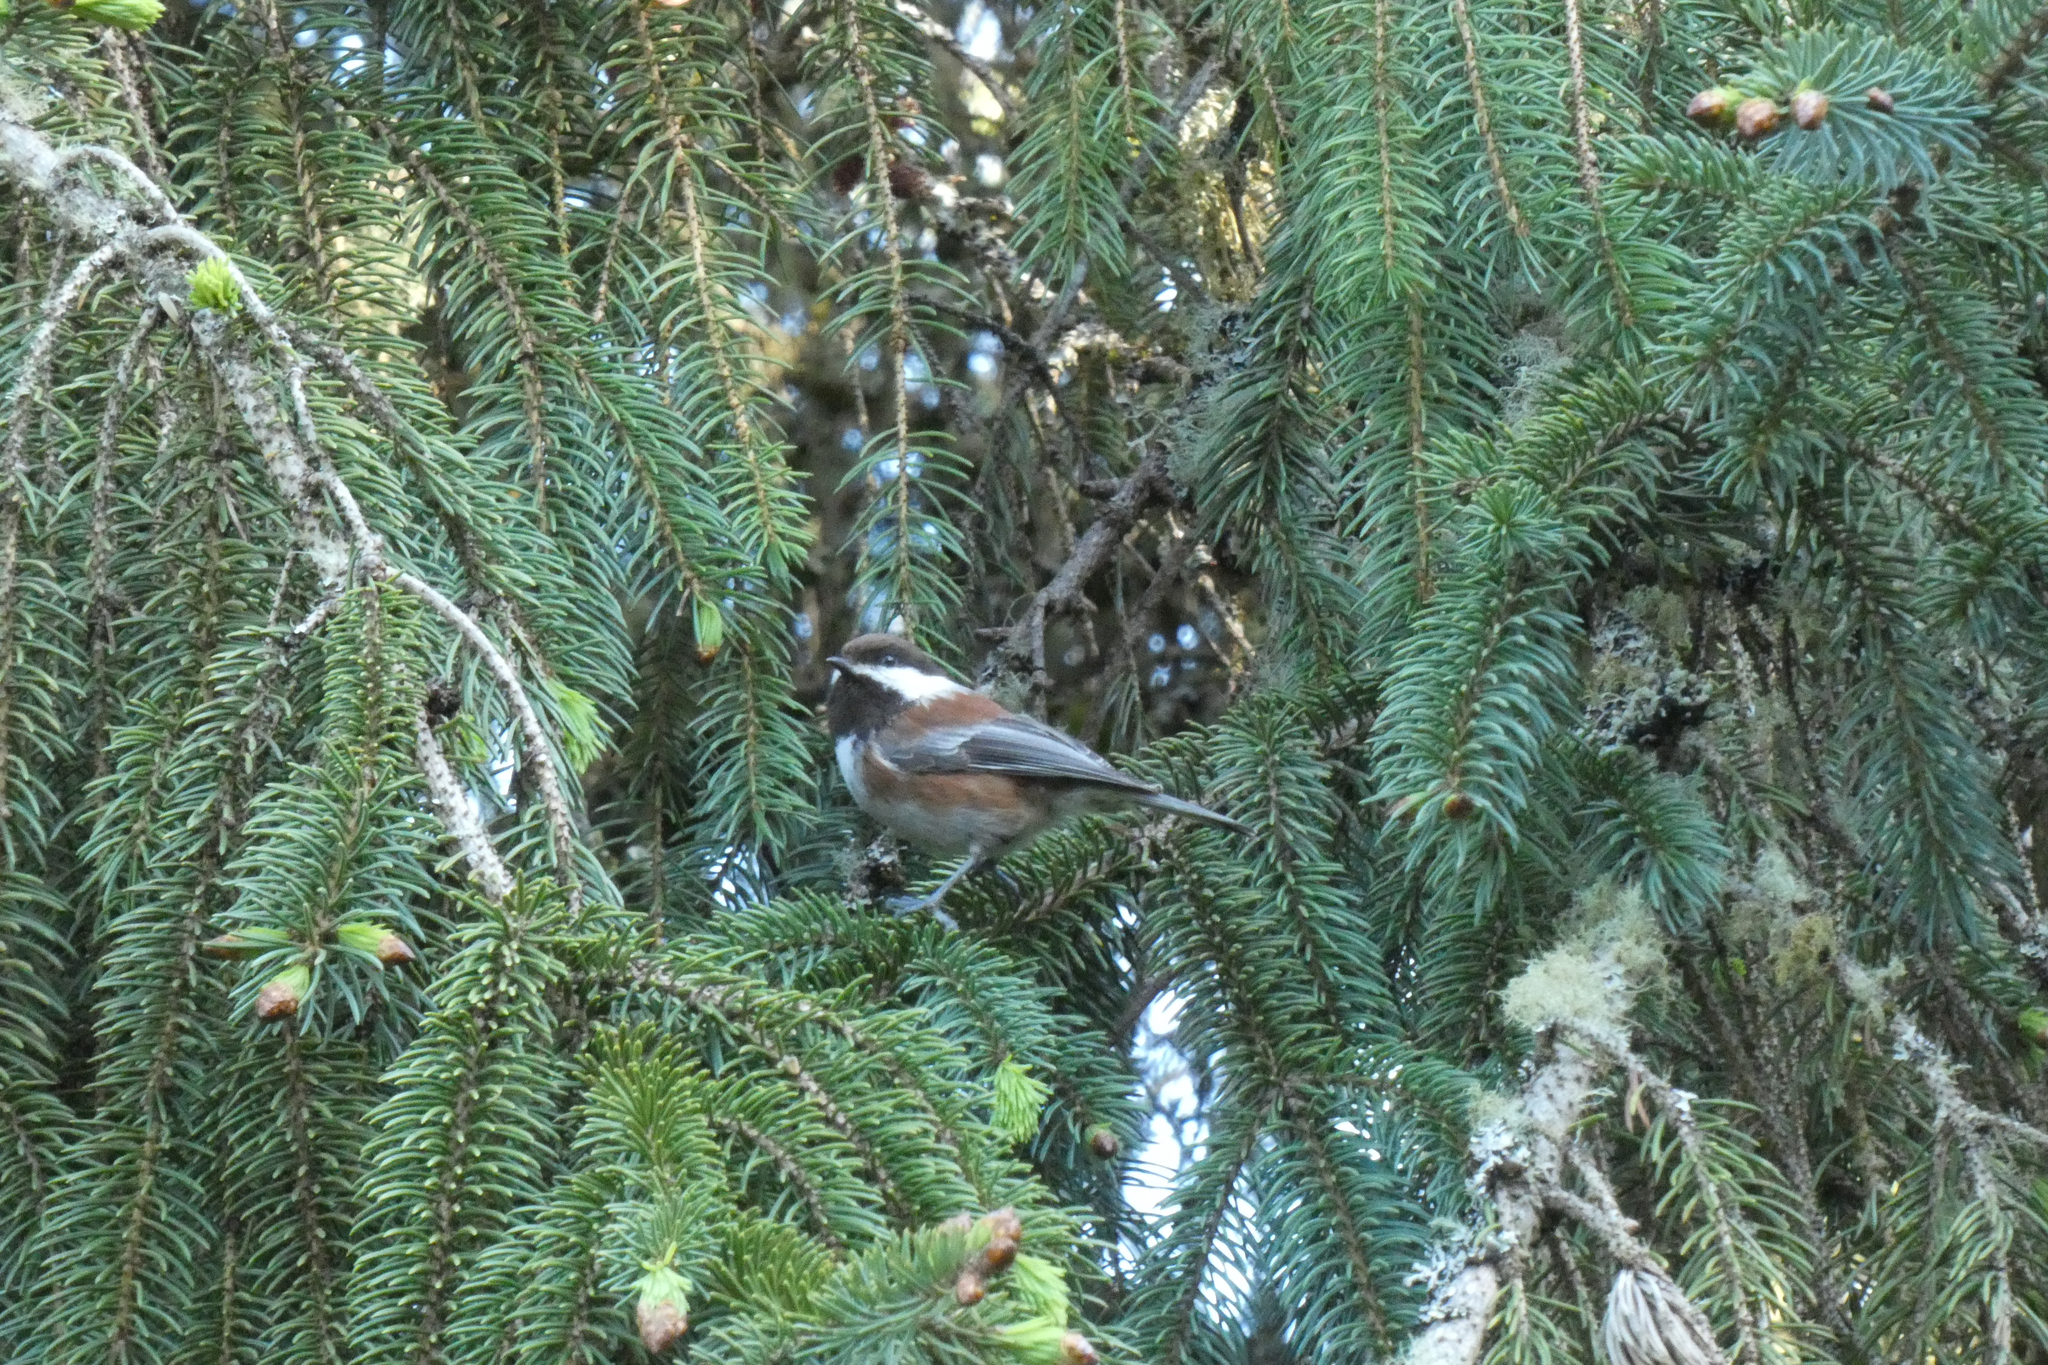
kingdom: Animalia
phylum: Chordata
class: Aves
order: Passeriformes
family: Paridae
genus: Poecile
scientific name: Poecile rufescens
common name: Chestnut-backed chickadee
